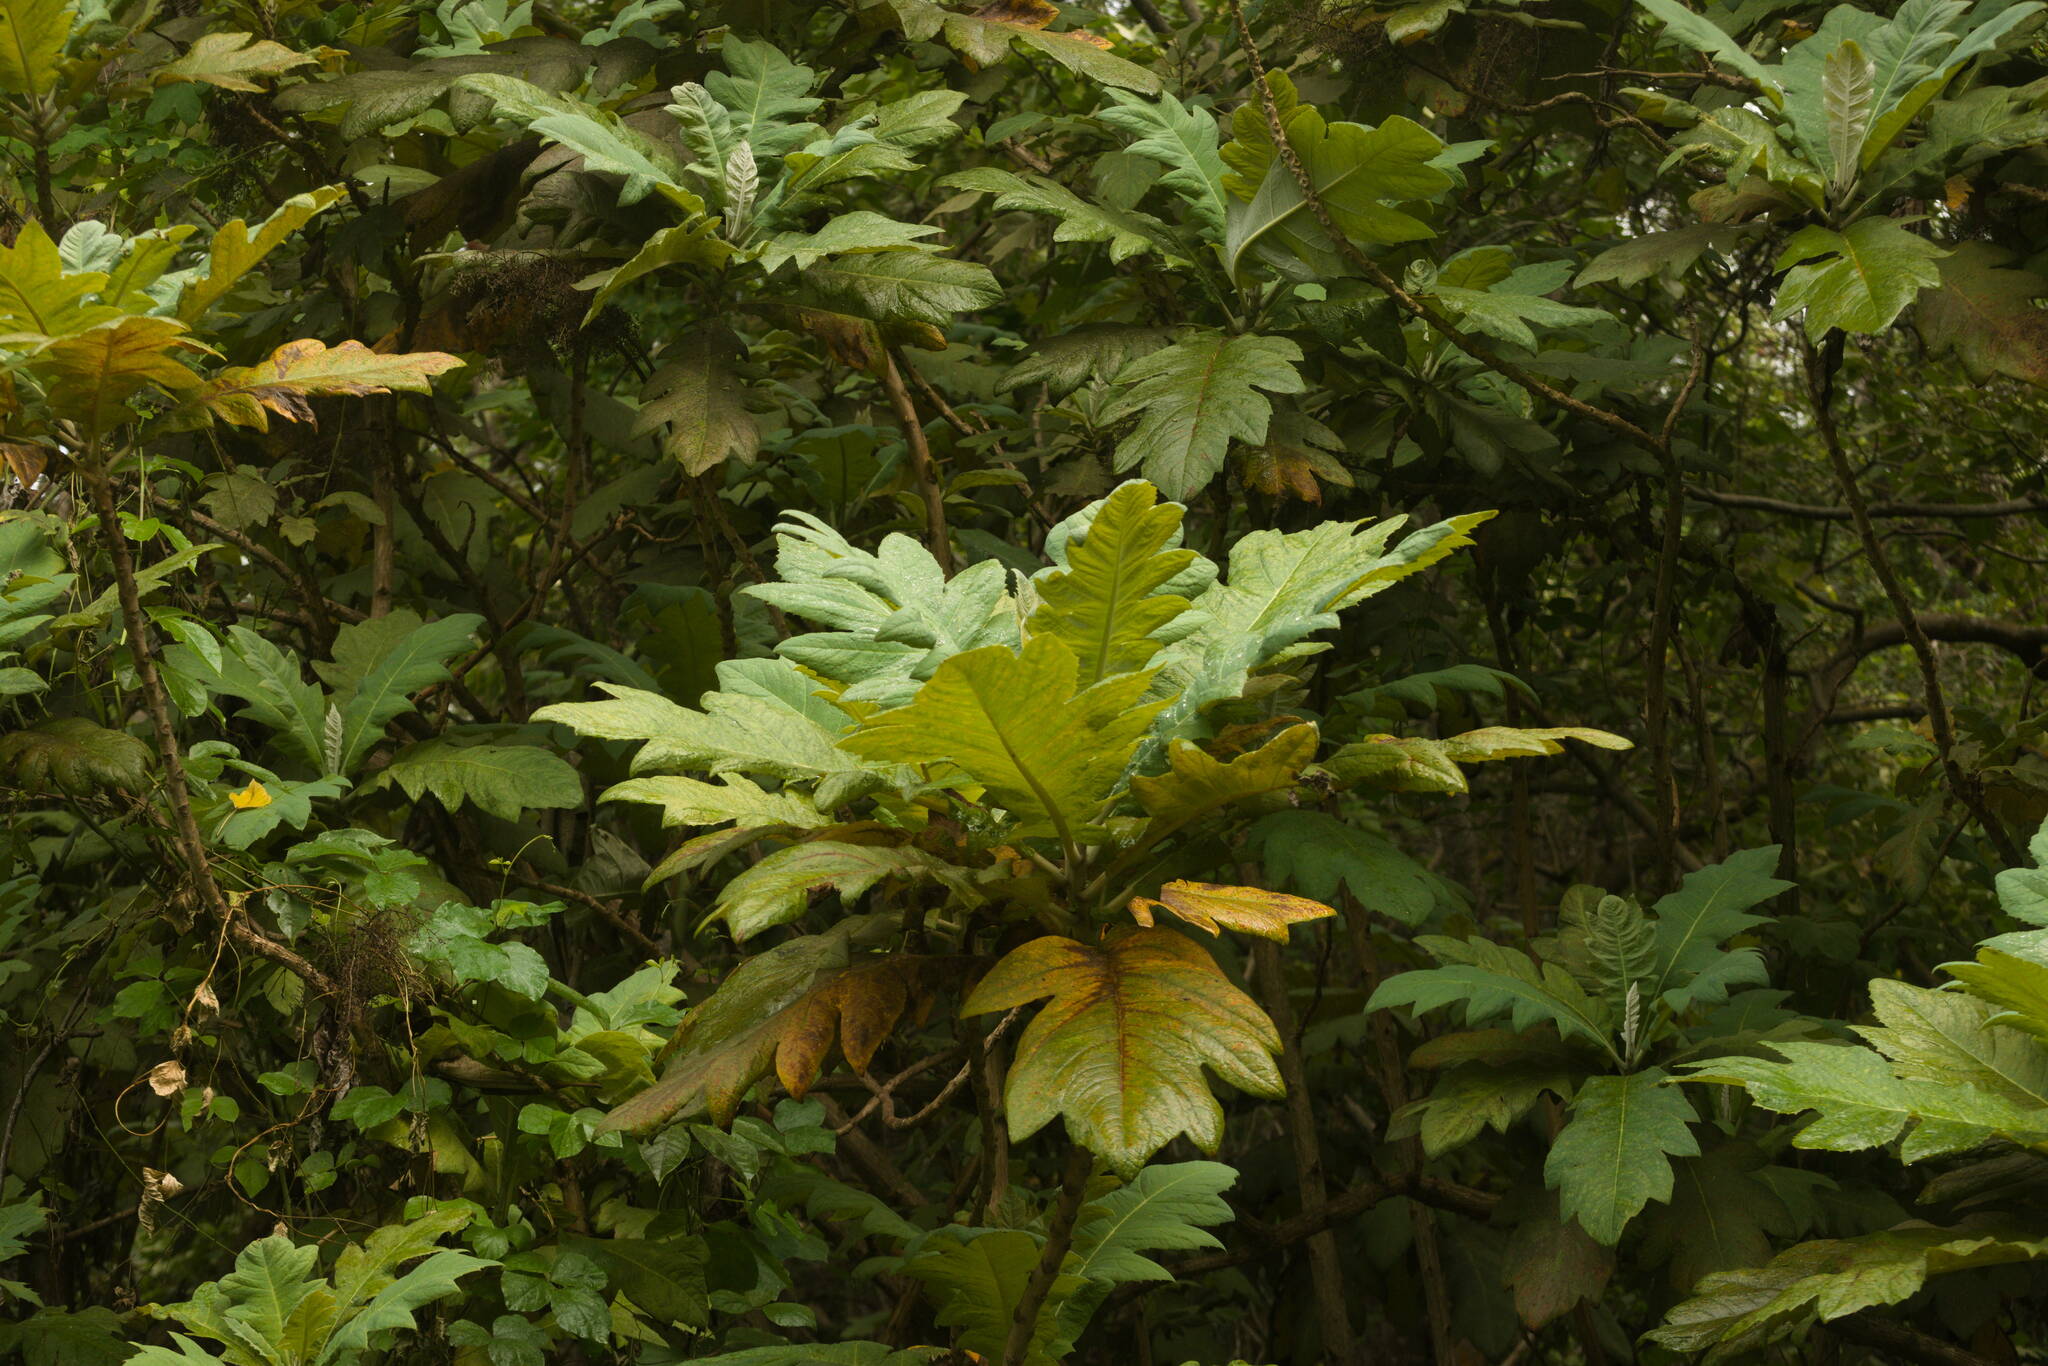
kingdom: Plantae
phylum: Tracheophyta
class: Magnoliopsida
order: Ranunculales
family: Papaveraceae
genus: Bocconia
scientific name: Bocconia frutescens
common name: Tree poppy
